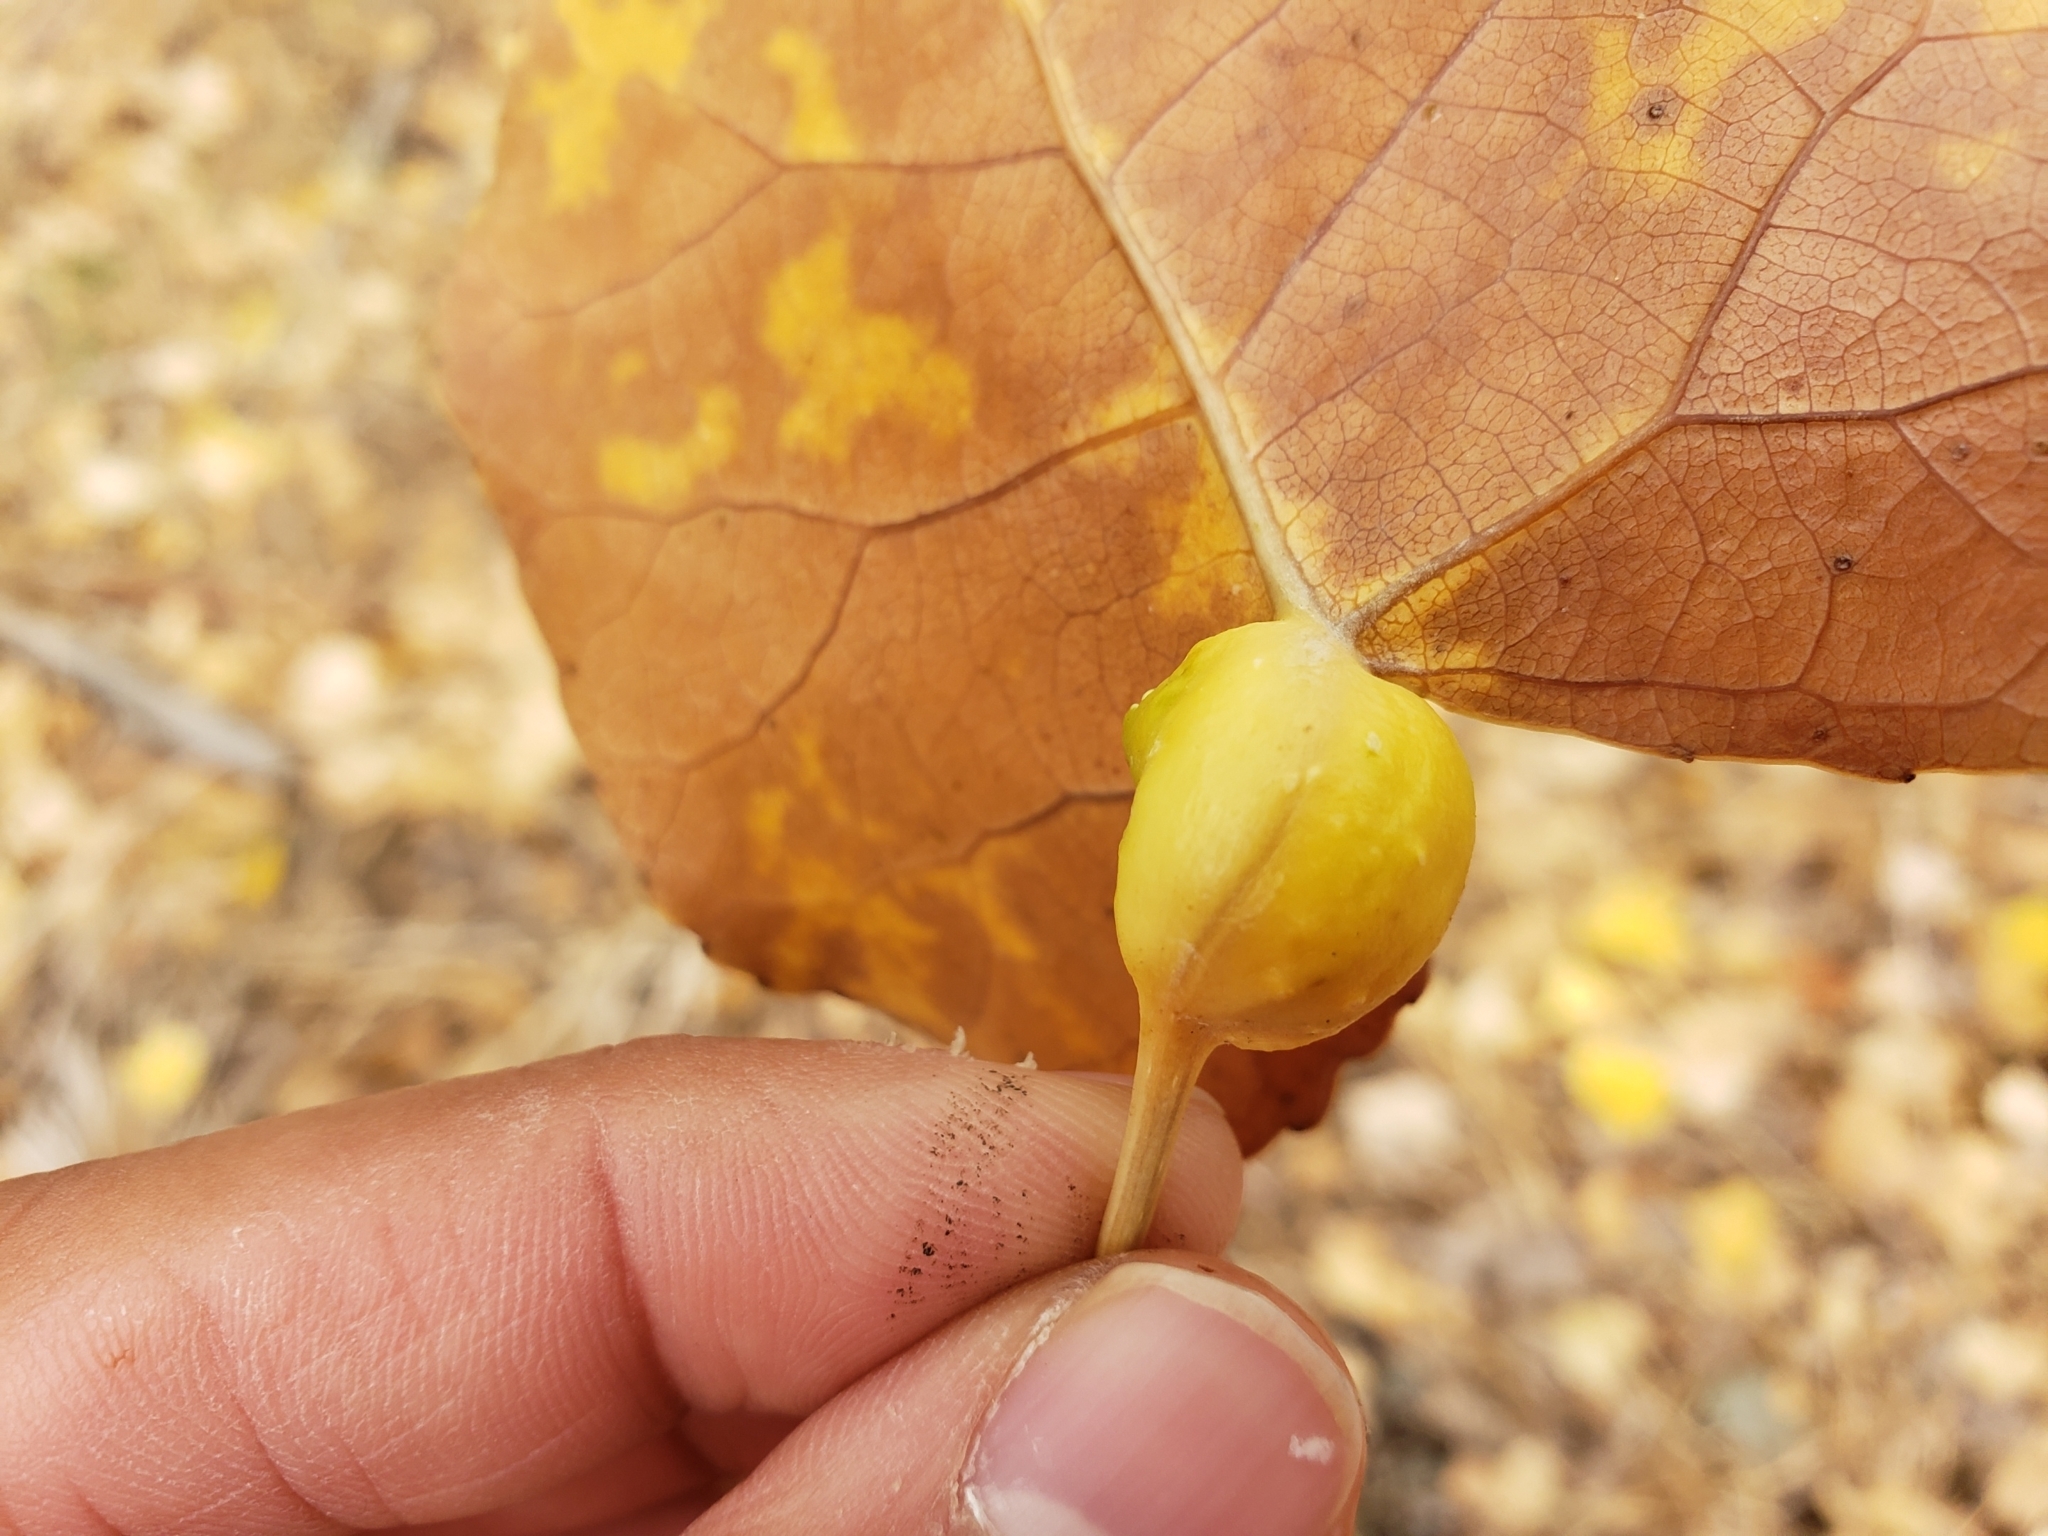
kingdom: Animalia
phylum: Arthropoda
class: Insecta
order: Hemiptera
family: Aphididae
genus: Pemphigus
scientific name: Pemphigus obesinymphae
